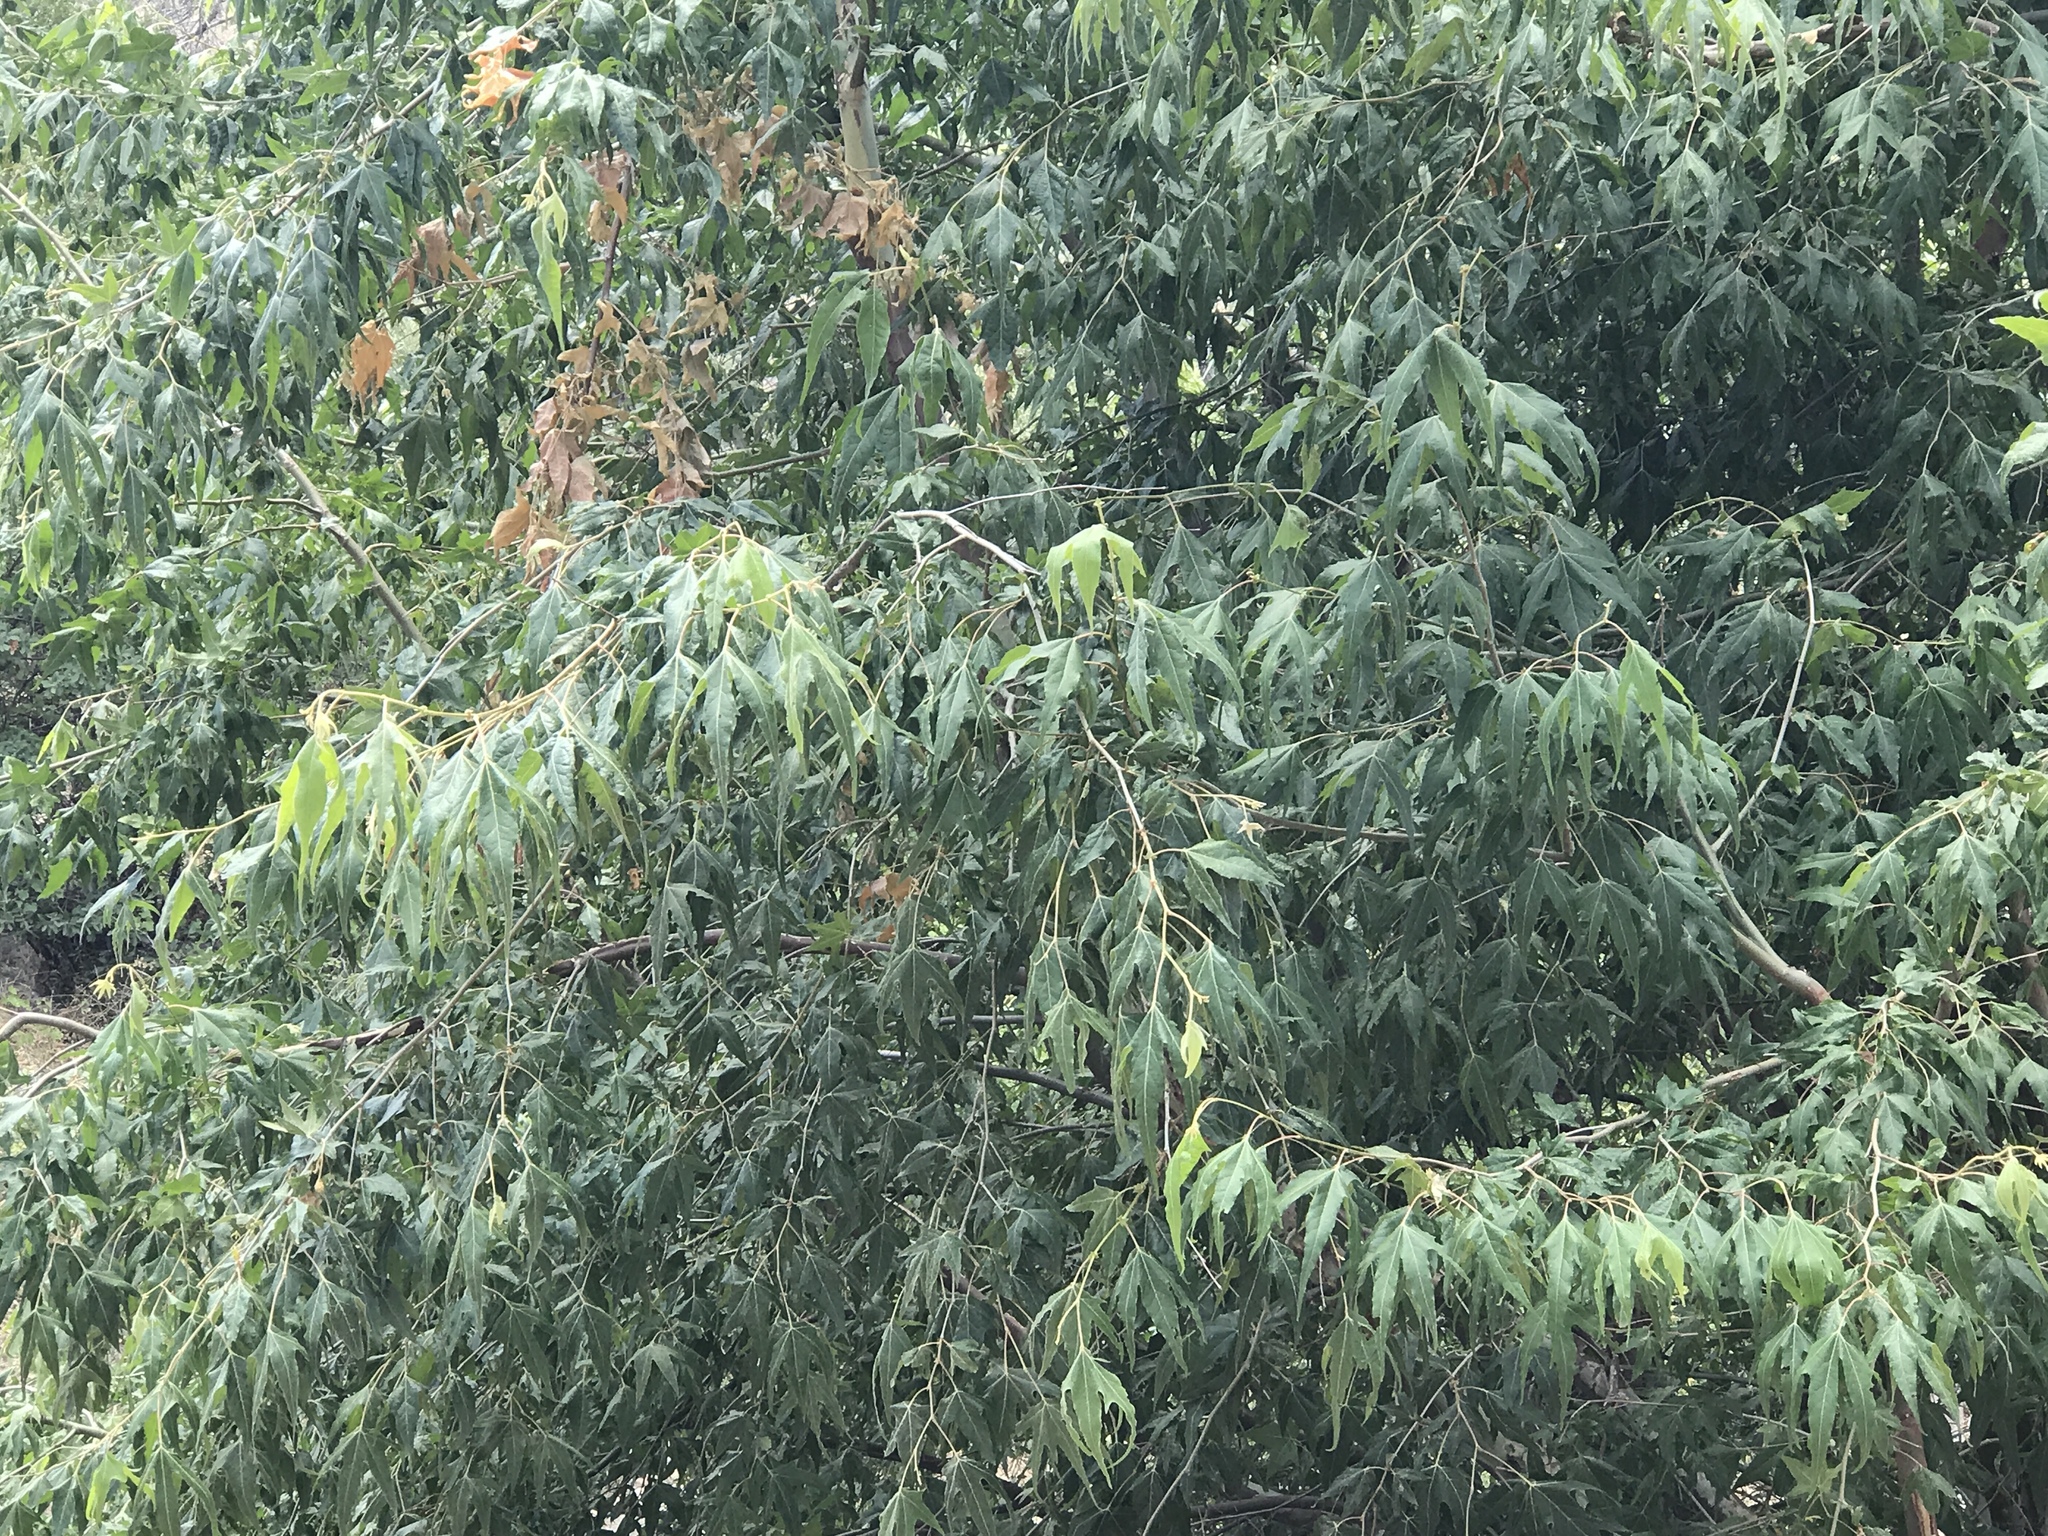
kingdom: Plantae
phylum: Tracheophyta
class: Magnoliopsida
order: Proteales
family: Platanaceae
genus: Platanus
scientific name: Platanus wrightii
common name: Arizona sycamore
